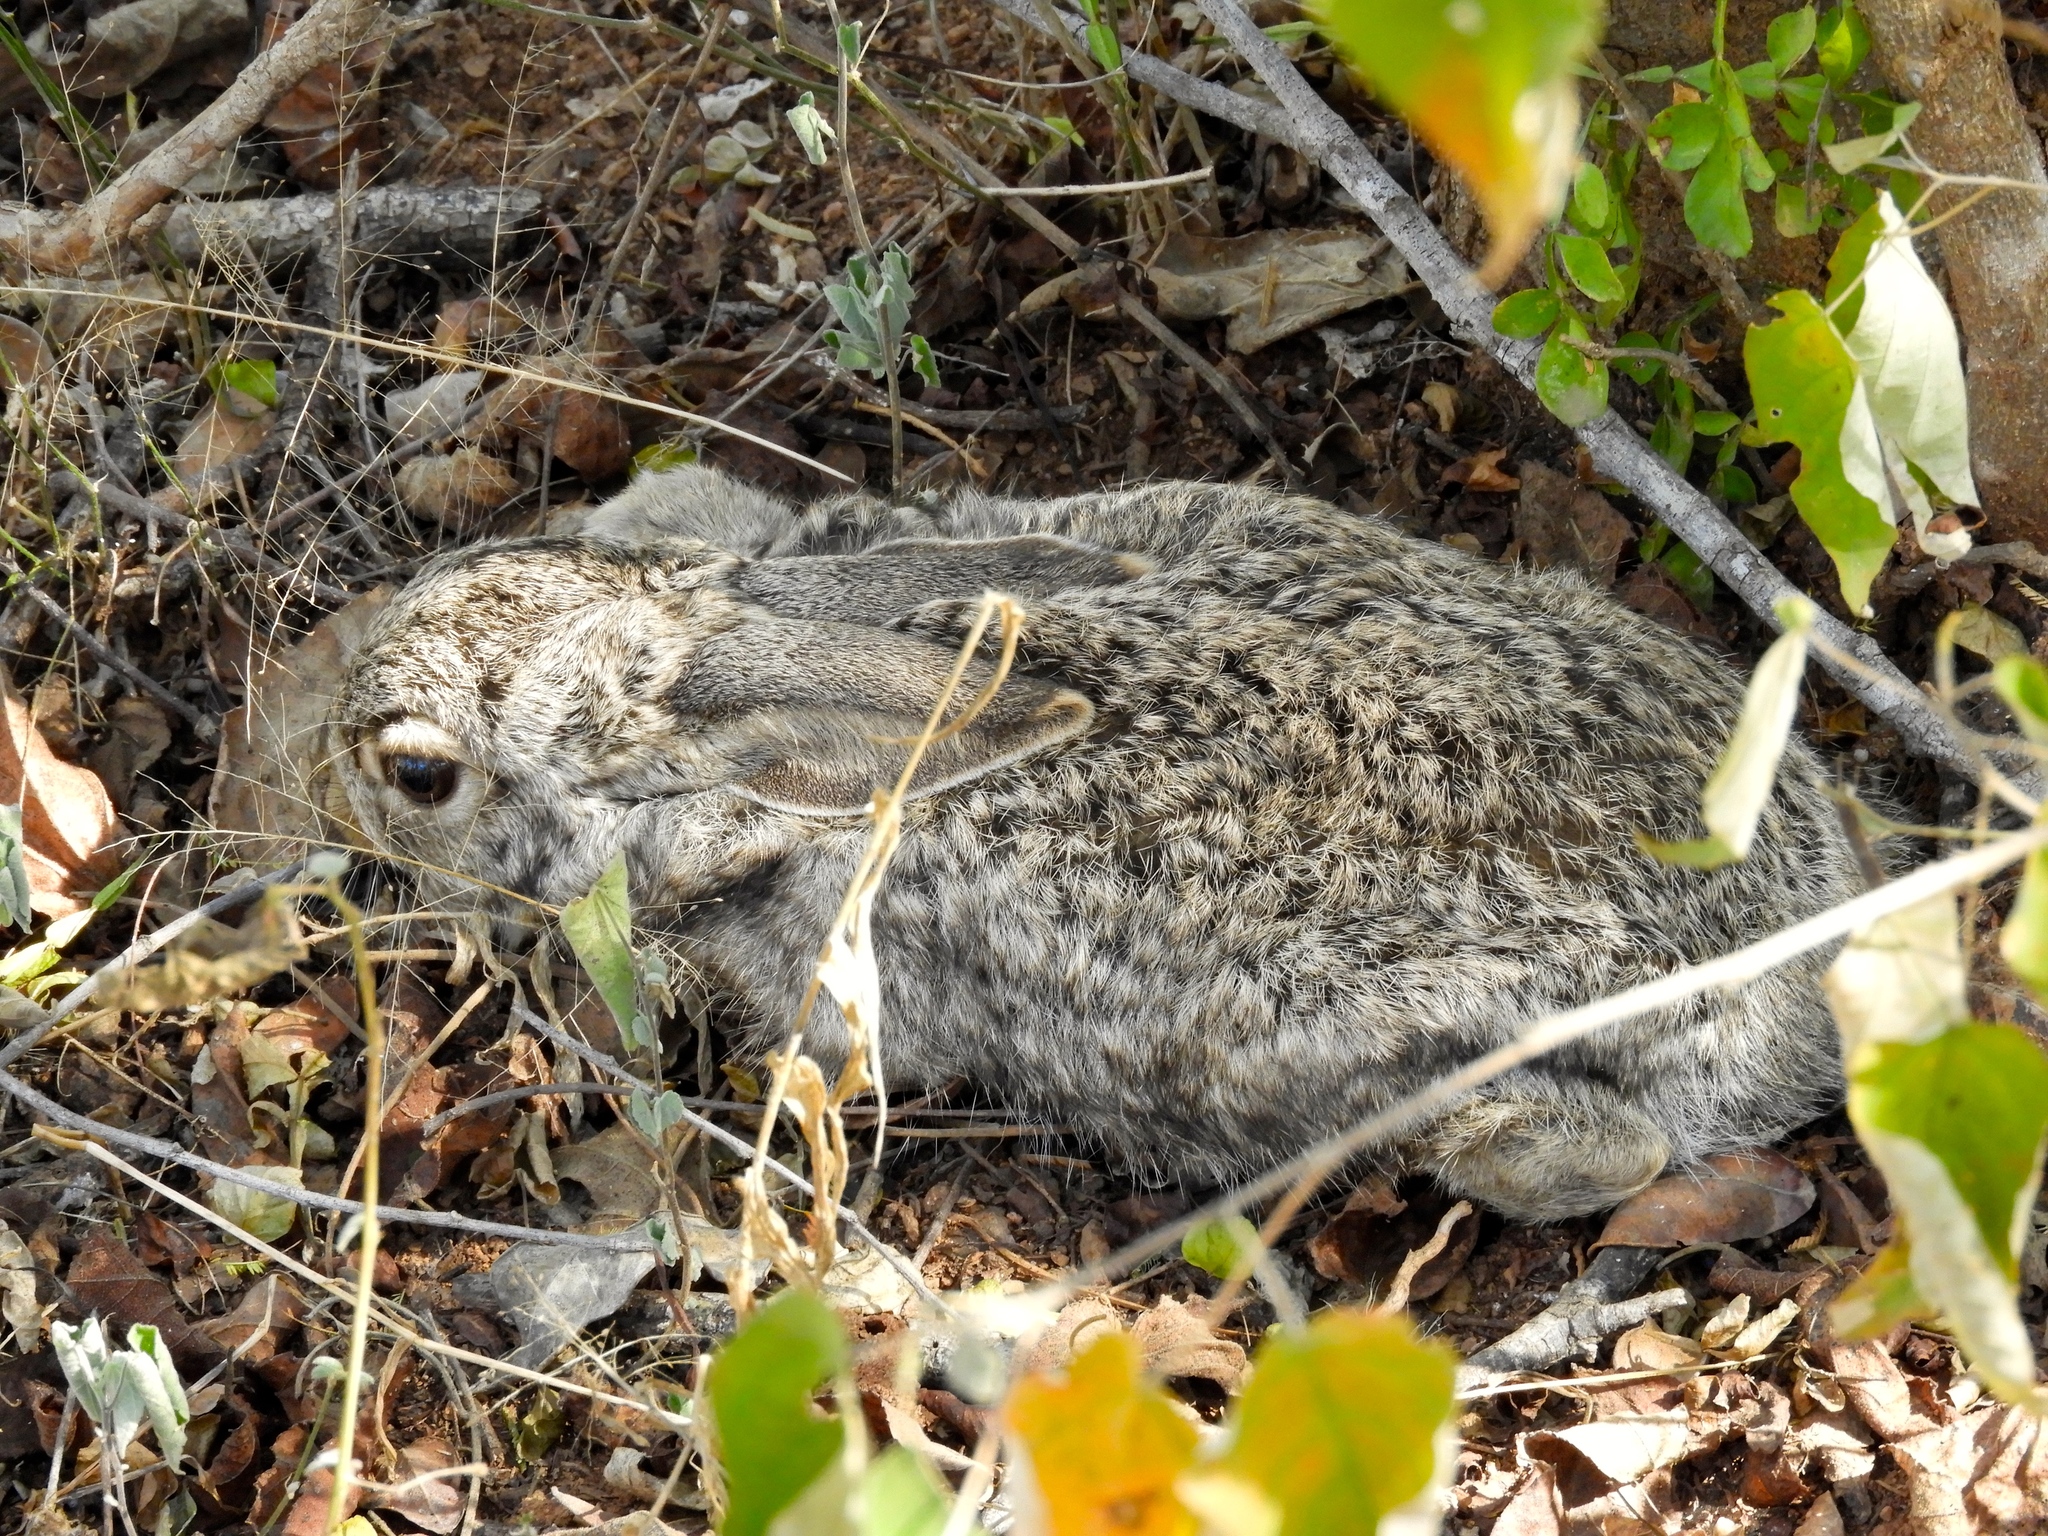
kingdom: Animalia
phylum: Chordata
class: Mammalia
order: Lagomorpha
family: Leporidae
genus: Lepus
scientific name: Lepus alleni
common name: Antelope jackrabbit
